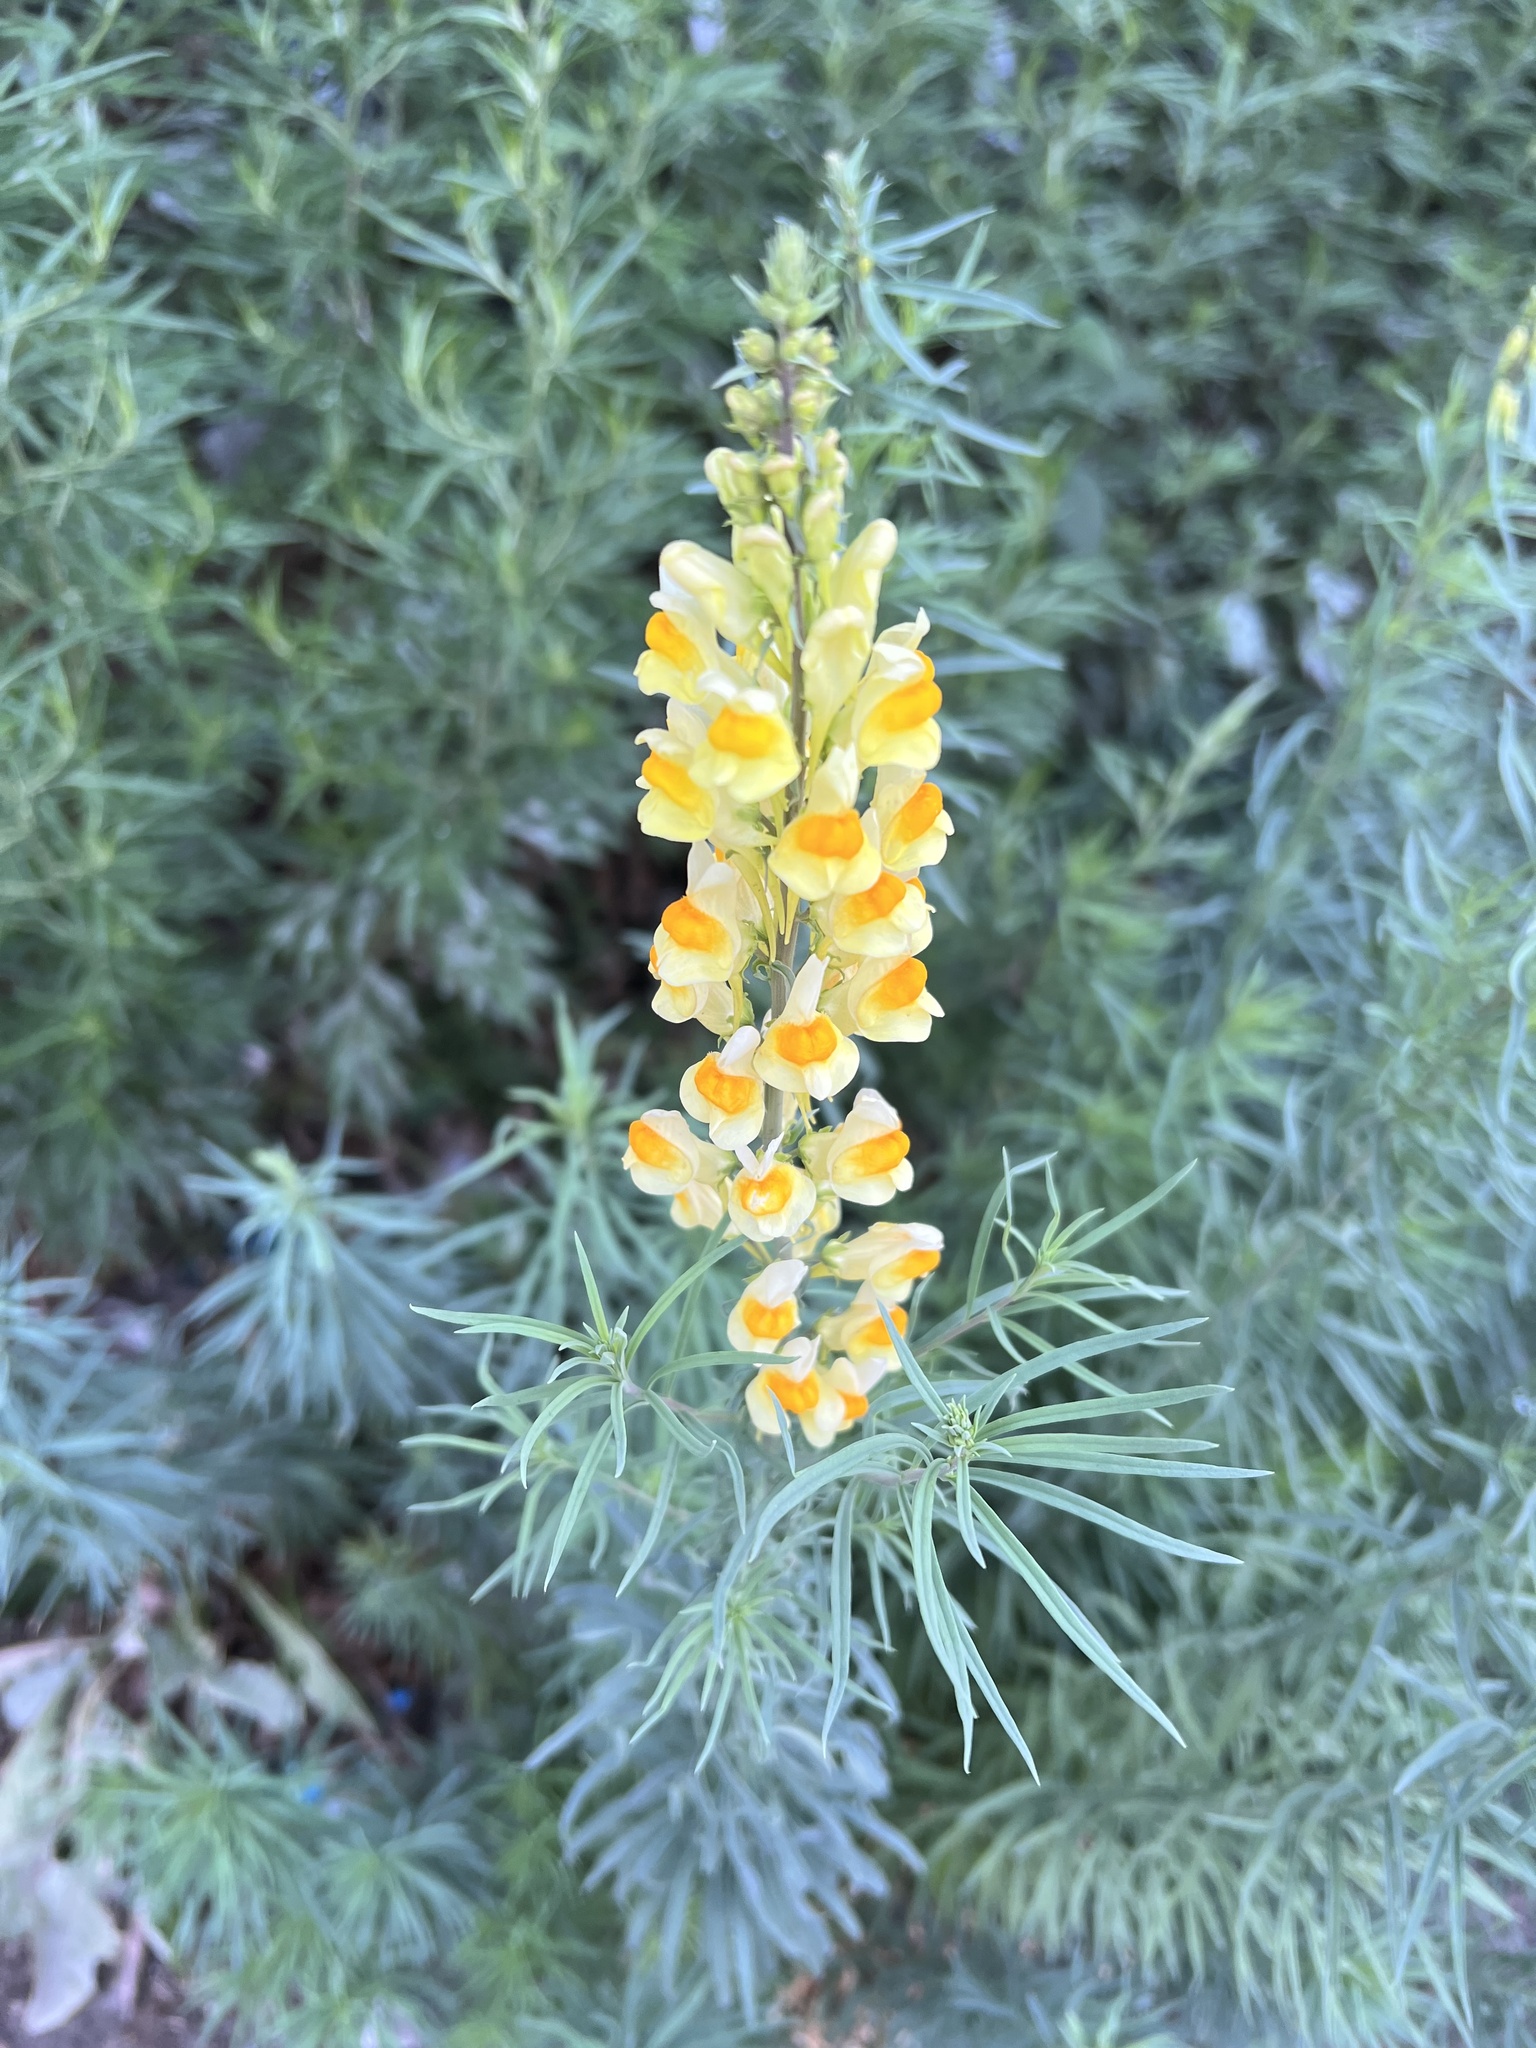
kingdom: Plantae
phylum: Tracheophyta
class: Magnoliopsida
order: Lamiales
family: Plantaginaceae
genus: Linaria
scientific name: Linaria vulgaris
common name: Butter and eggs
